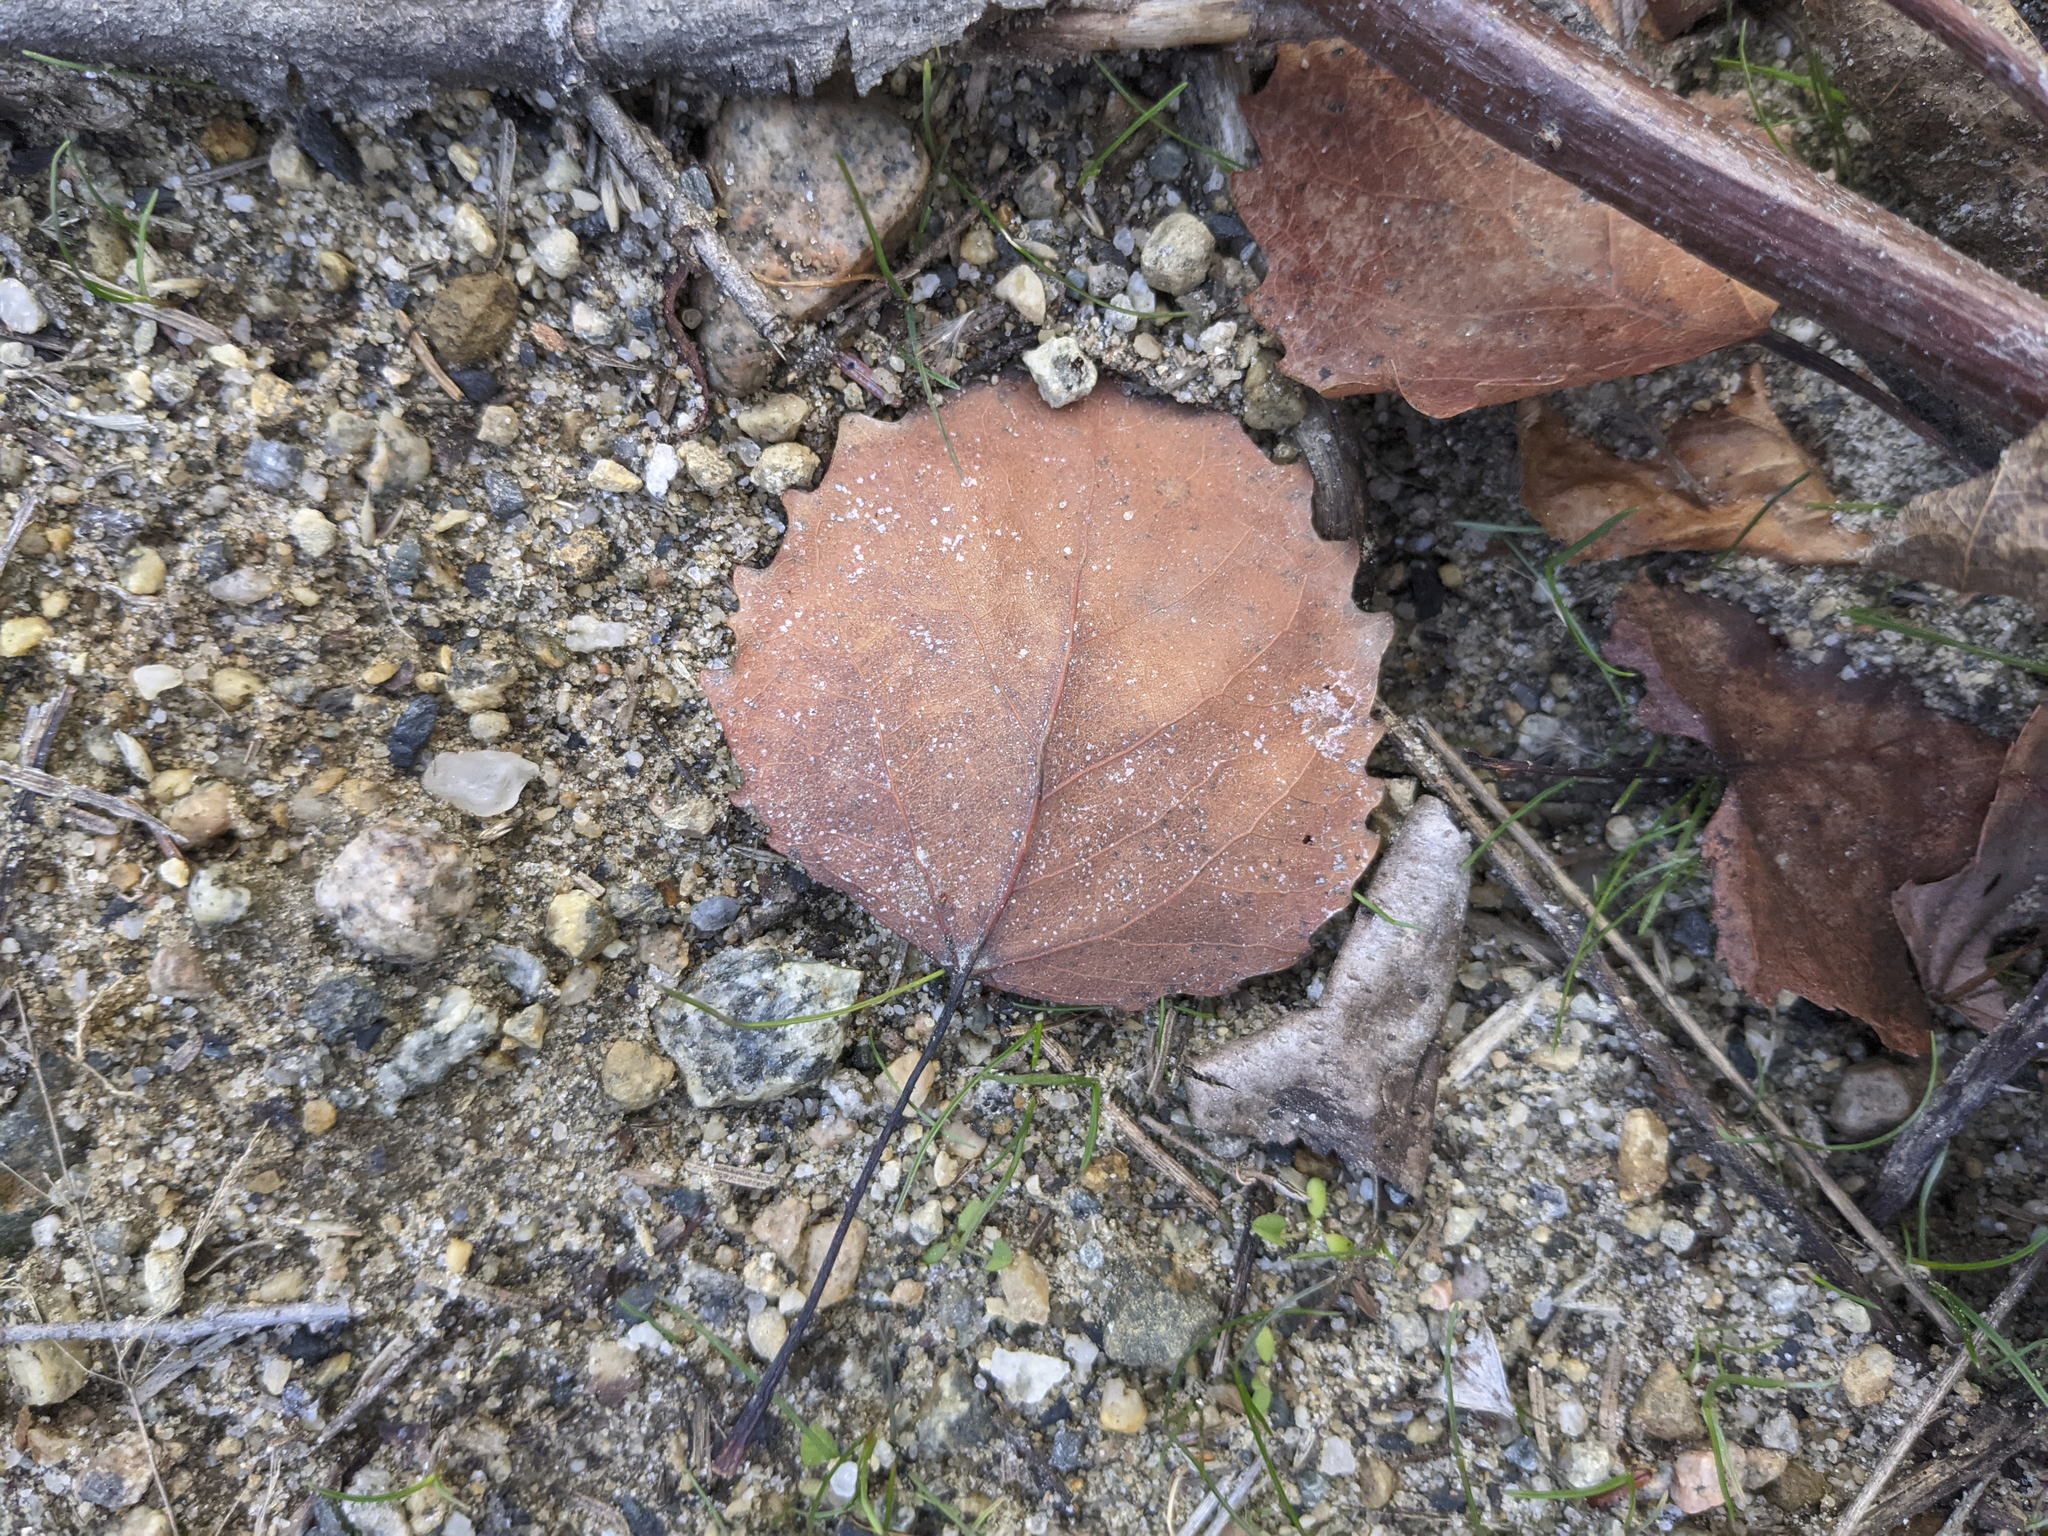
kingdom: Plantae
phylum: Tracheophyta
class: Magnoliopsida
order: Malpighiales
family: Salicaceae
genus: Populus
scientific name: Populus grandidentata
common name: Bigtooth aspen
